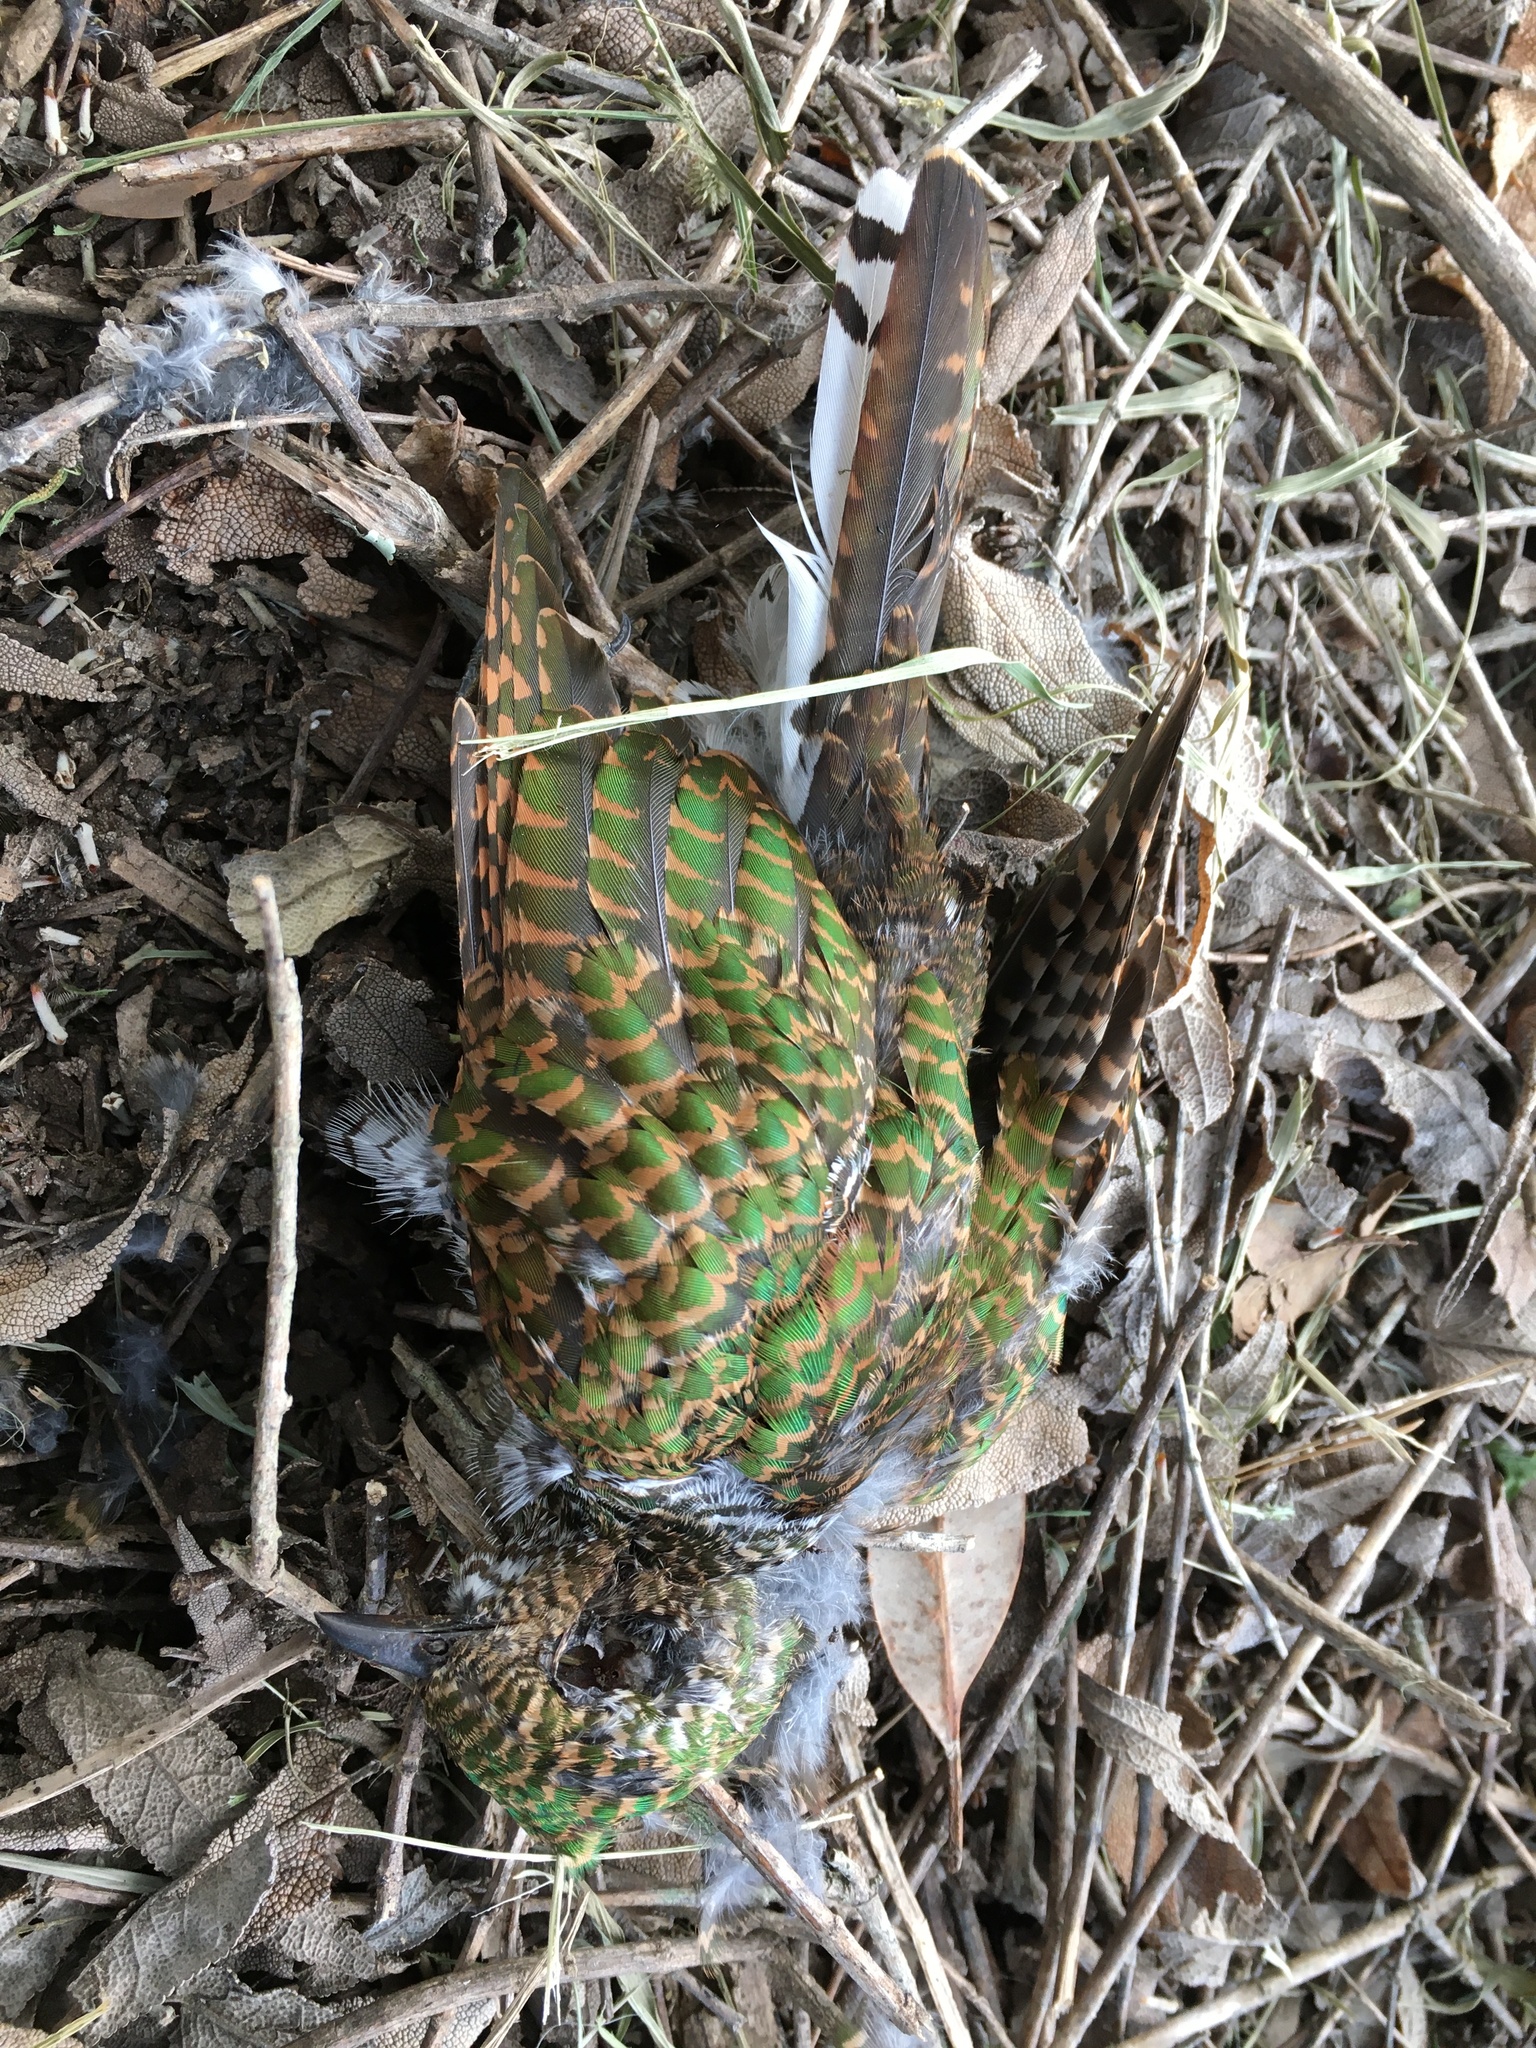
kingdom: Animalia
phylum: Chordata
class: Aves
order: Cuculiformes
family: Cuculidae
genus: Chrysococcyx
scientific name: Chrysococcyx cupreus
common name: African emerald cuckoo
